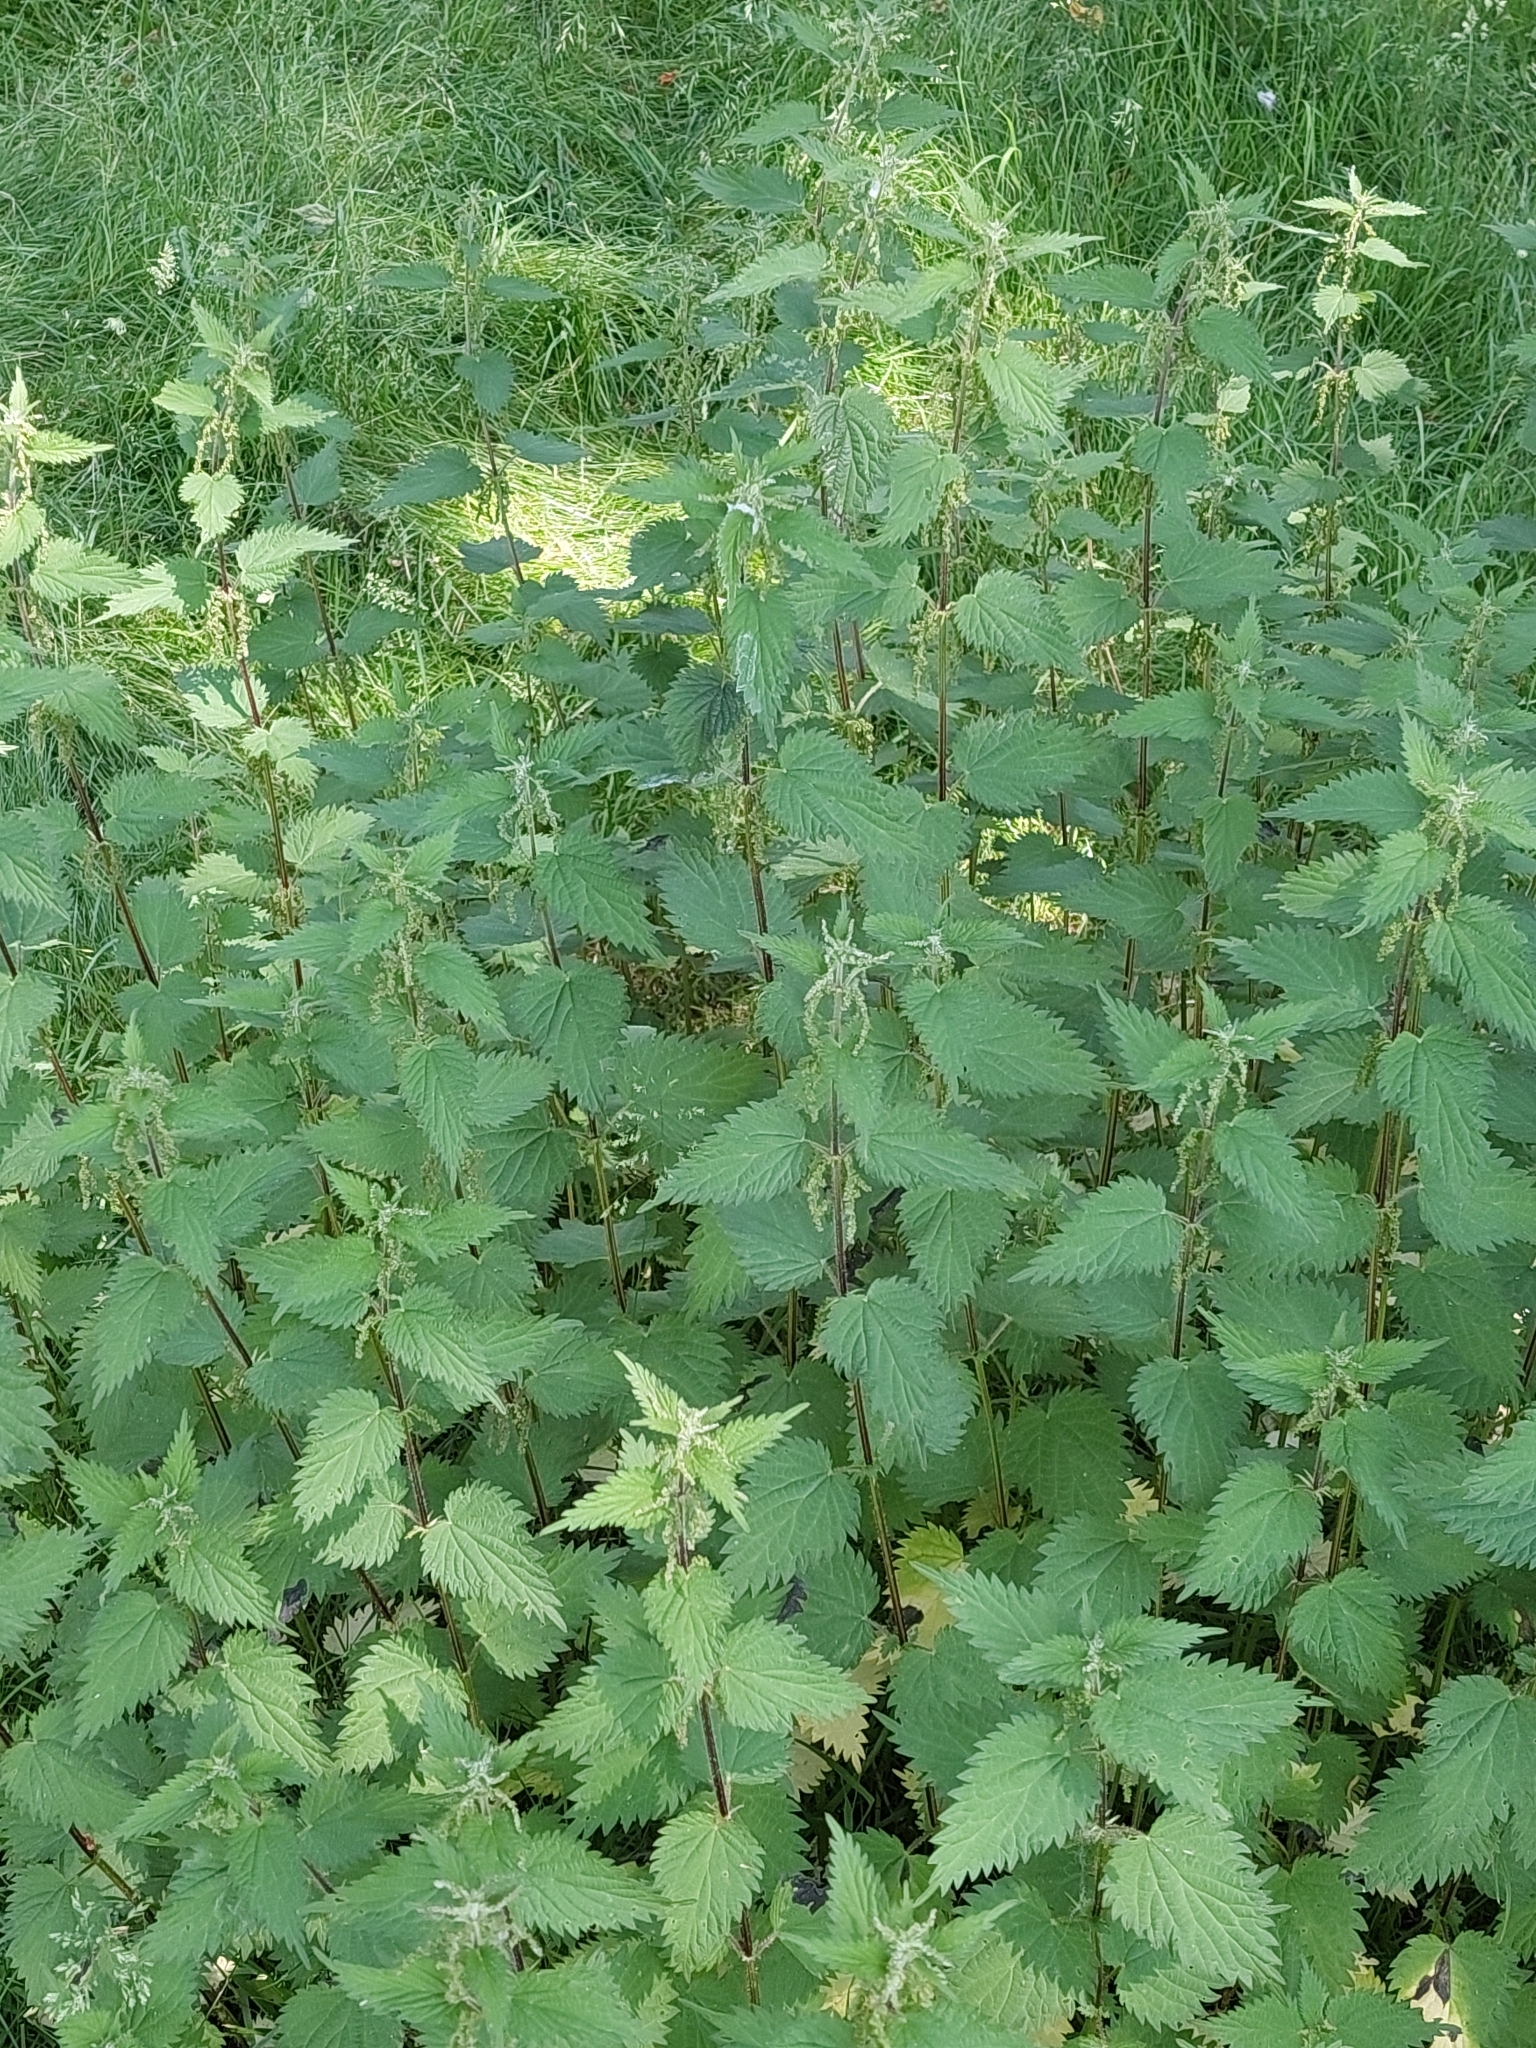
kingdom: Plantae
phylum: Tracheophyta
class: Magnoliopsida
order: Rosales
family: Urticaceae
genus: Urtica
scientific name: Urtica dioica
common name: Common nettle
